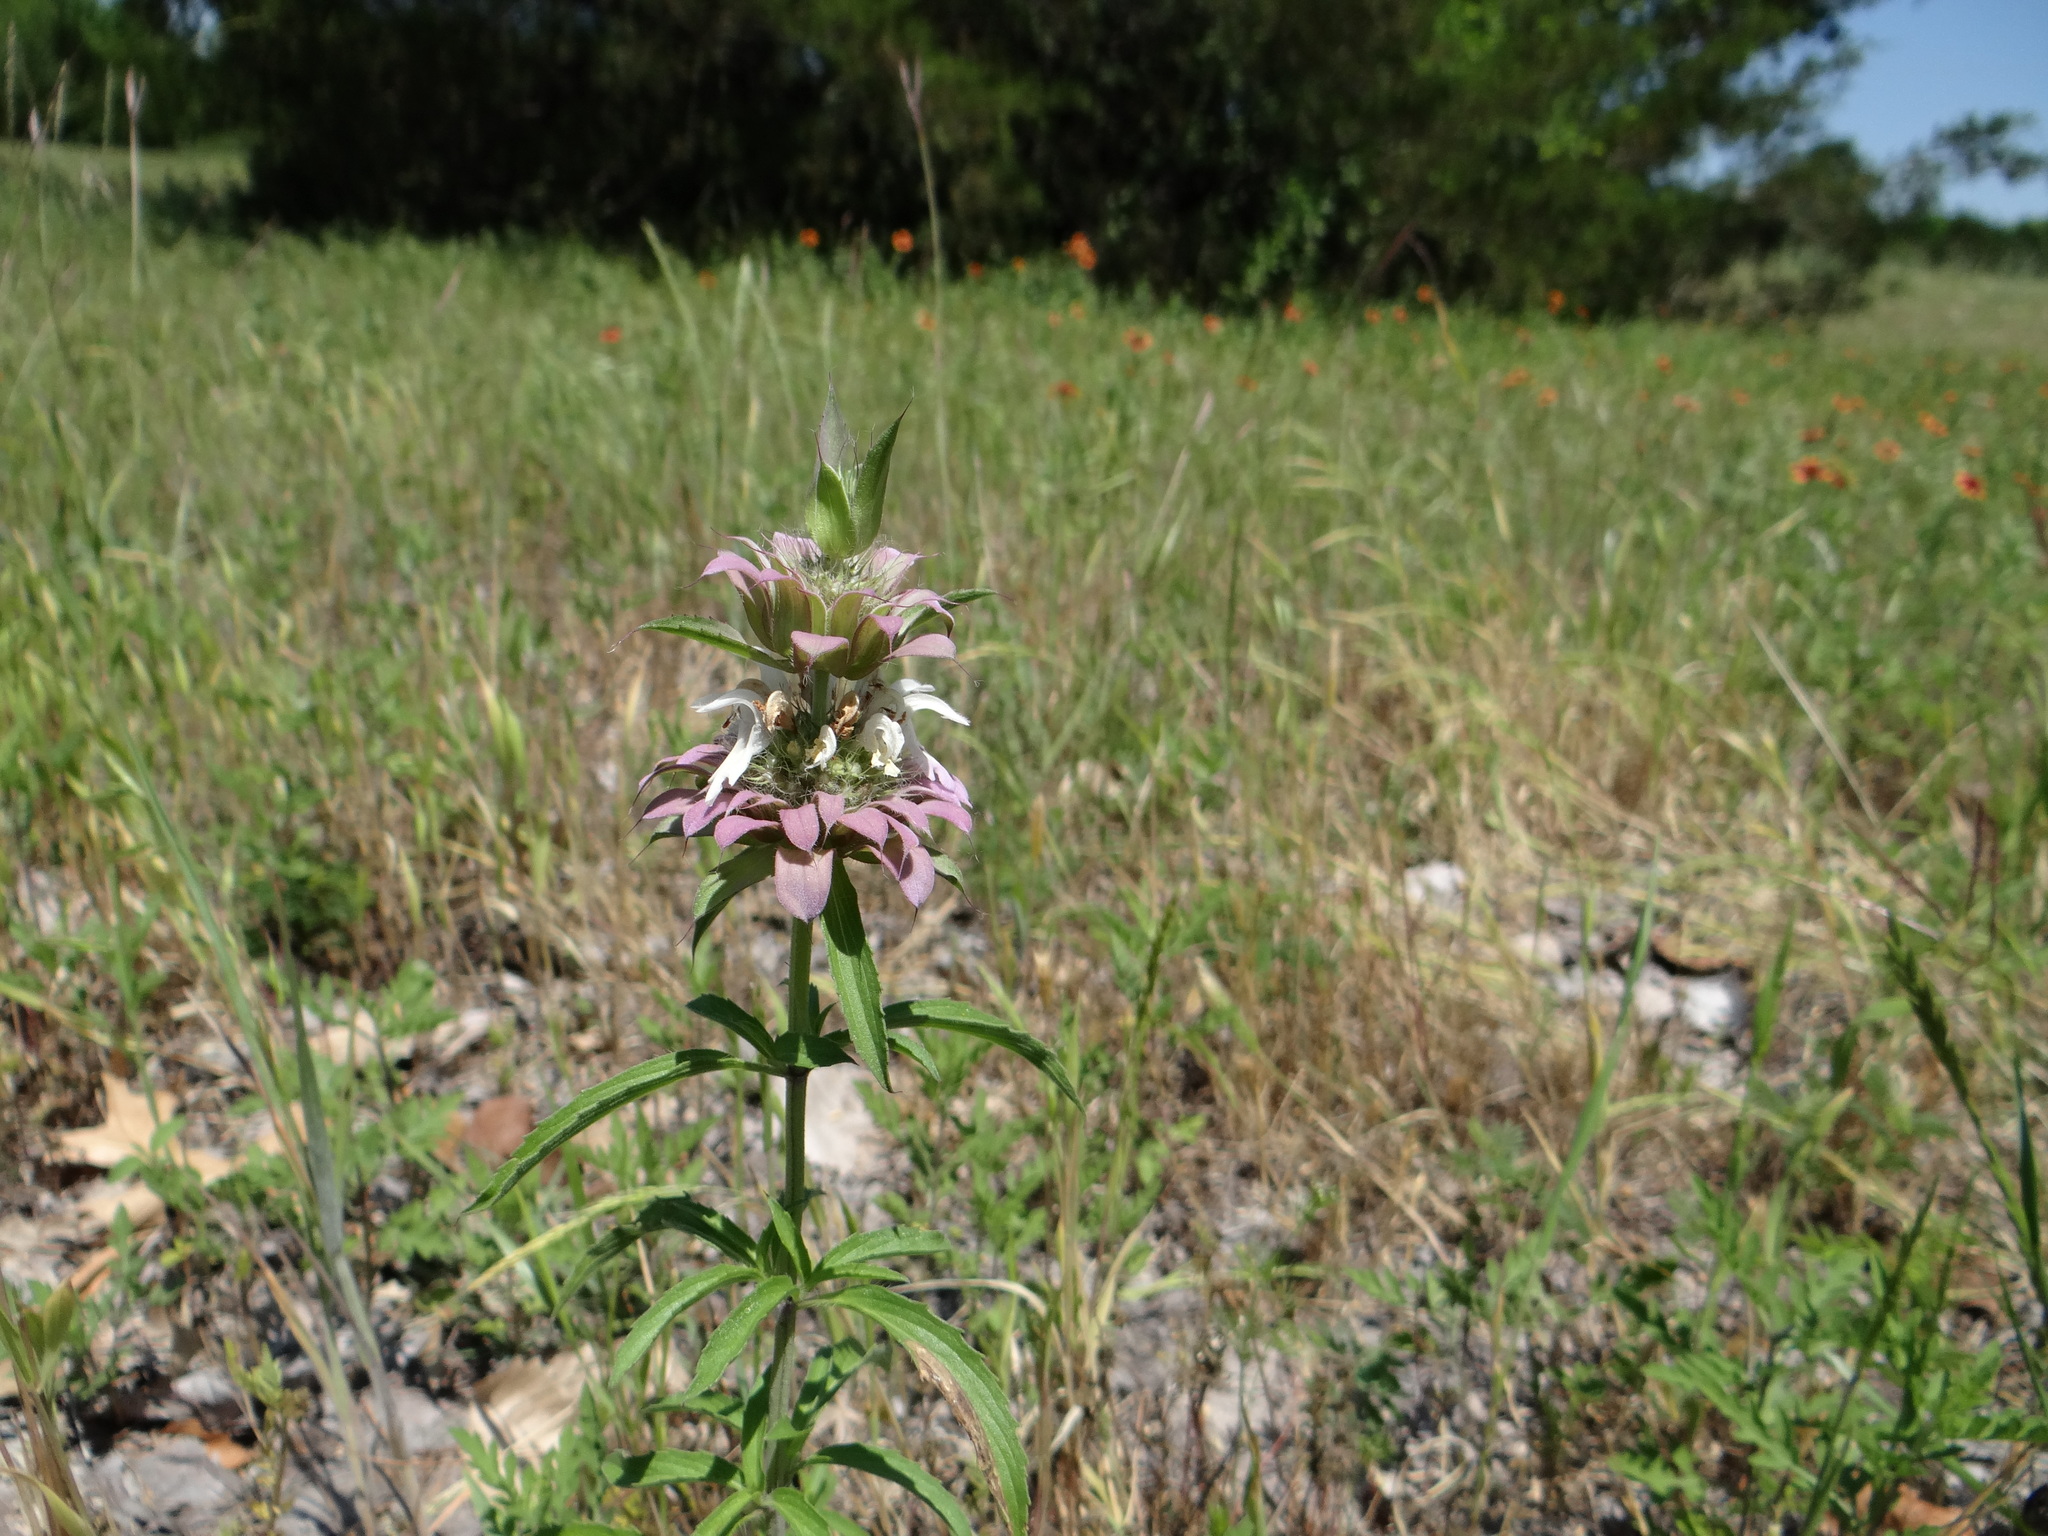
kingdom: Plantae
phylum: Tracheophyta
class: Magnoliopsida
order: Lamiales
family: Lamiaceae
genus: Monarda
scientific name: Monarda citriodora
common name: Lemon beebalm
